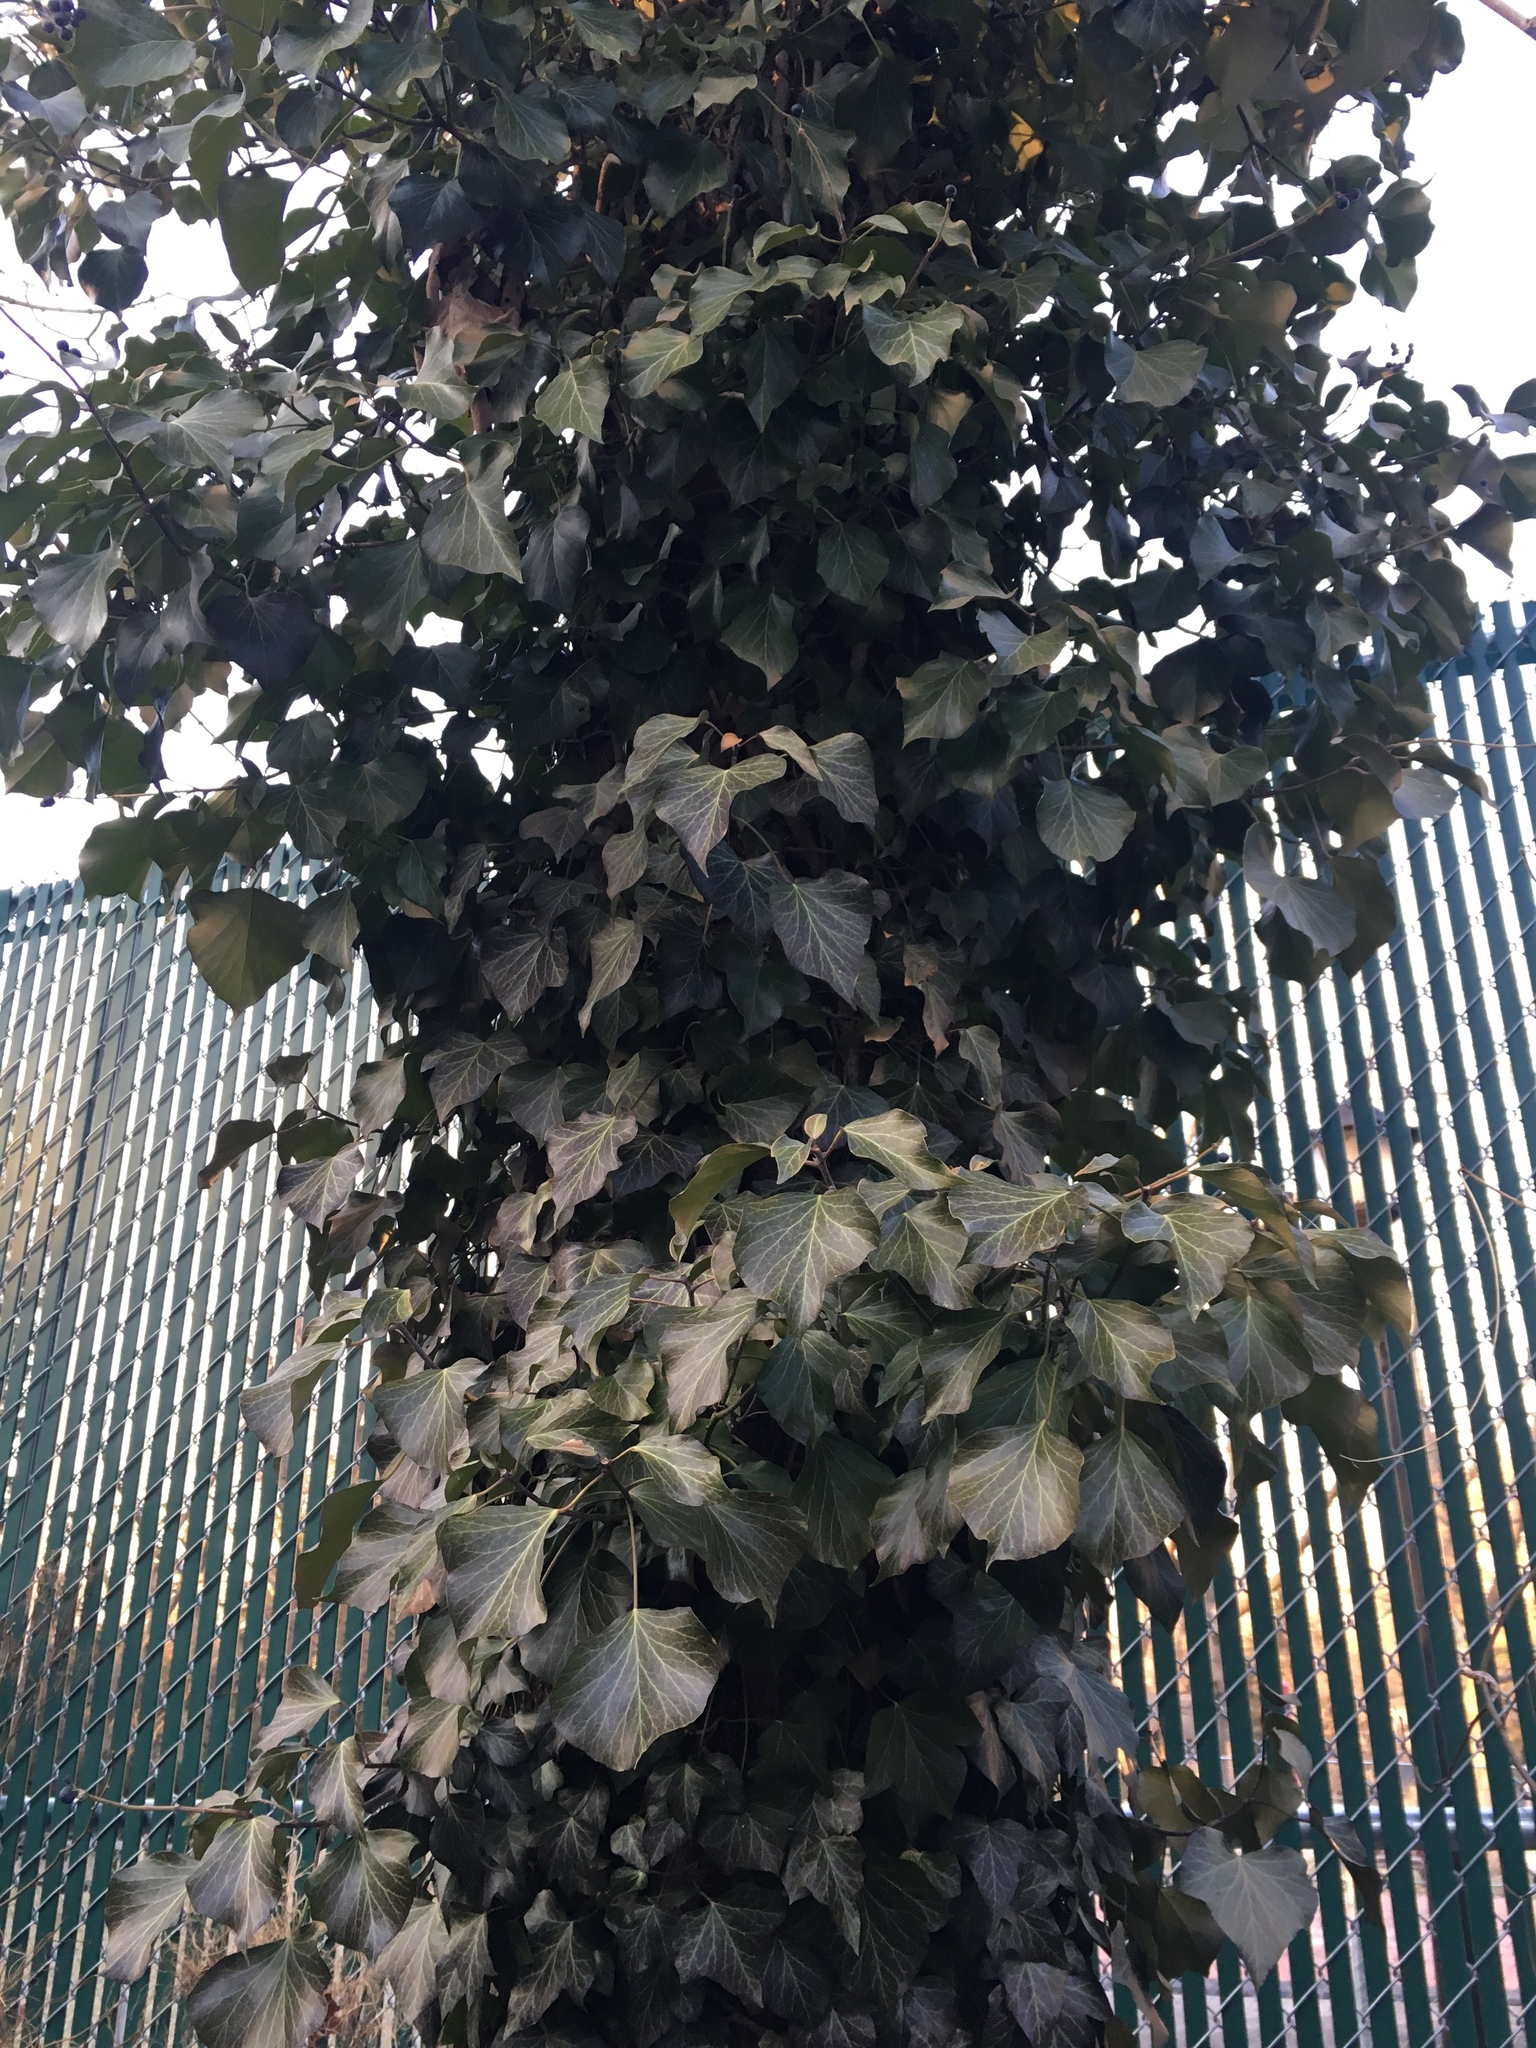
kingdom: Plantae
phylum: Tracheophyta
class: Magnoliopsida
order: Apiales
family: Araliaceae
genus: Hedera
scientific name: Hedera helix
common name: Ivy
